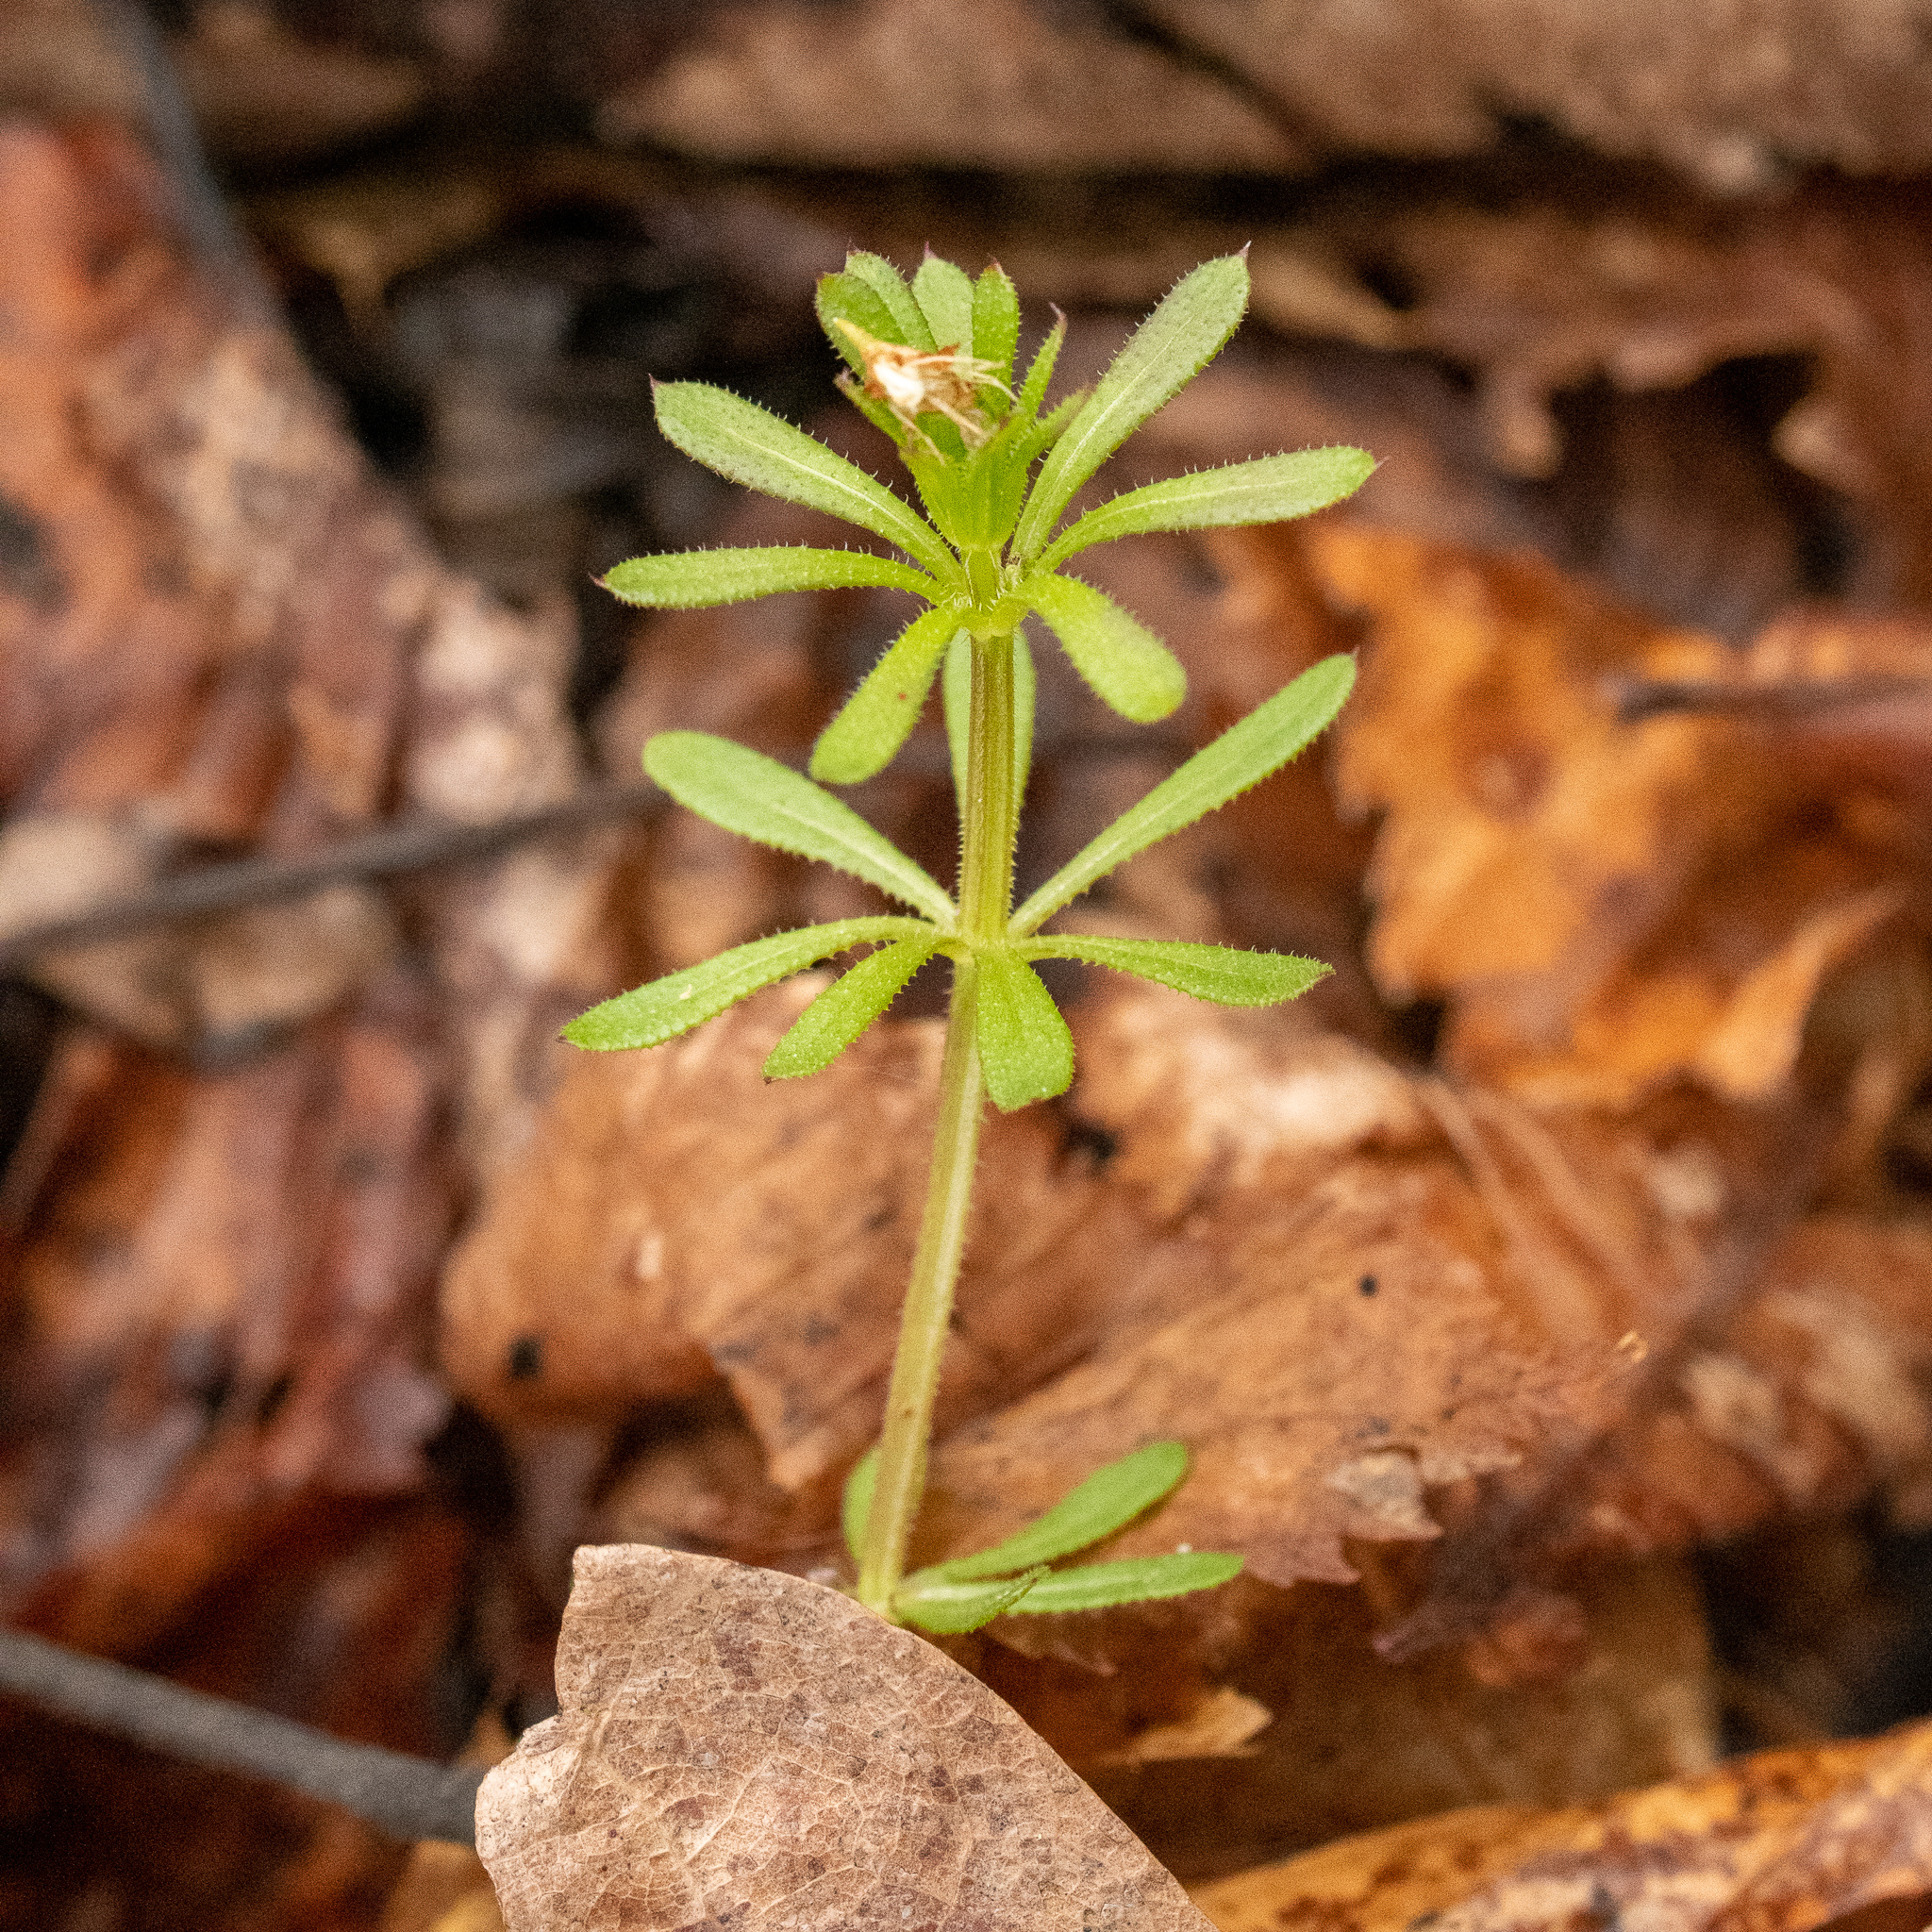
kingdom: Plantae
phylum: Tracheophyta
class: Magnoliopsida
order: Gentianales
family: Rubiaceae
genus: Galium
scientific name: Galium aparine
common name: Cleavers
